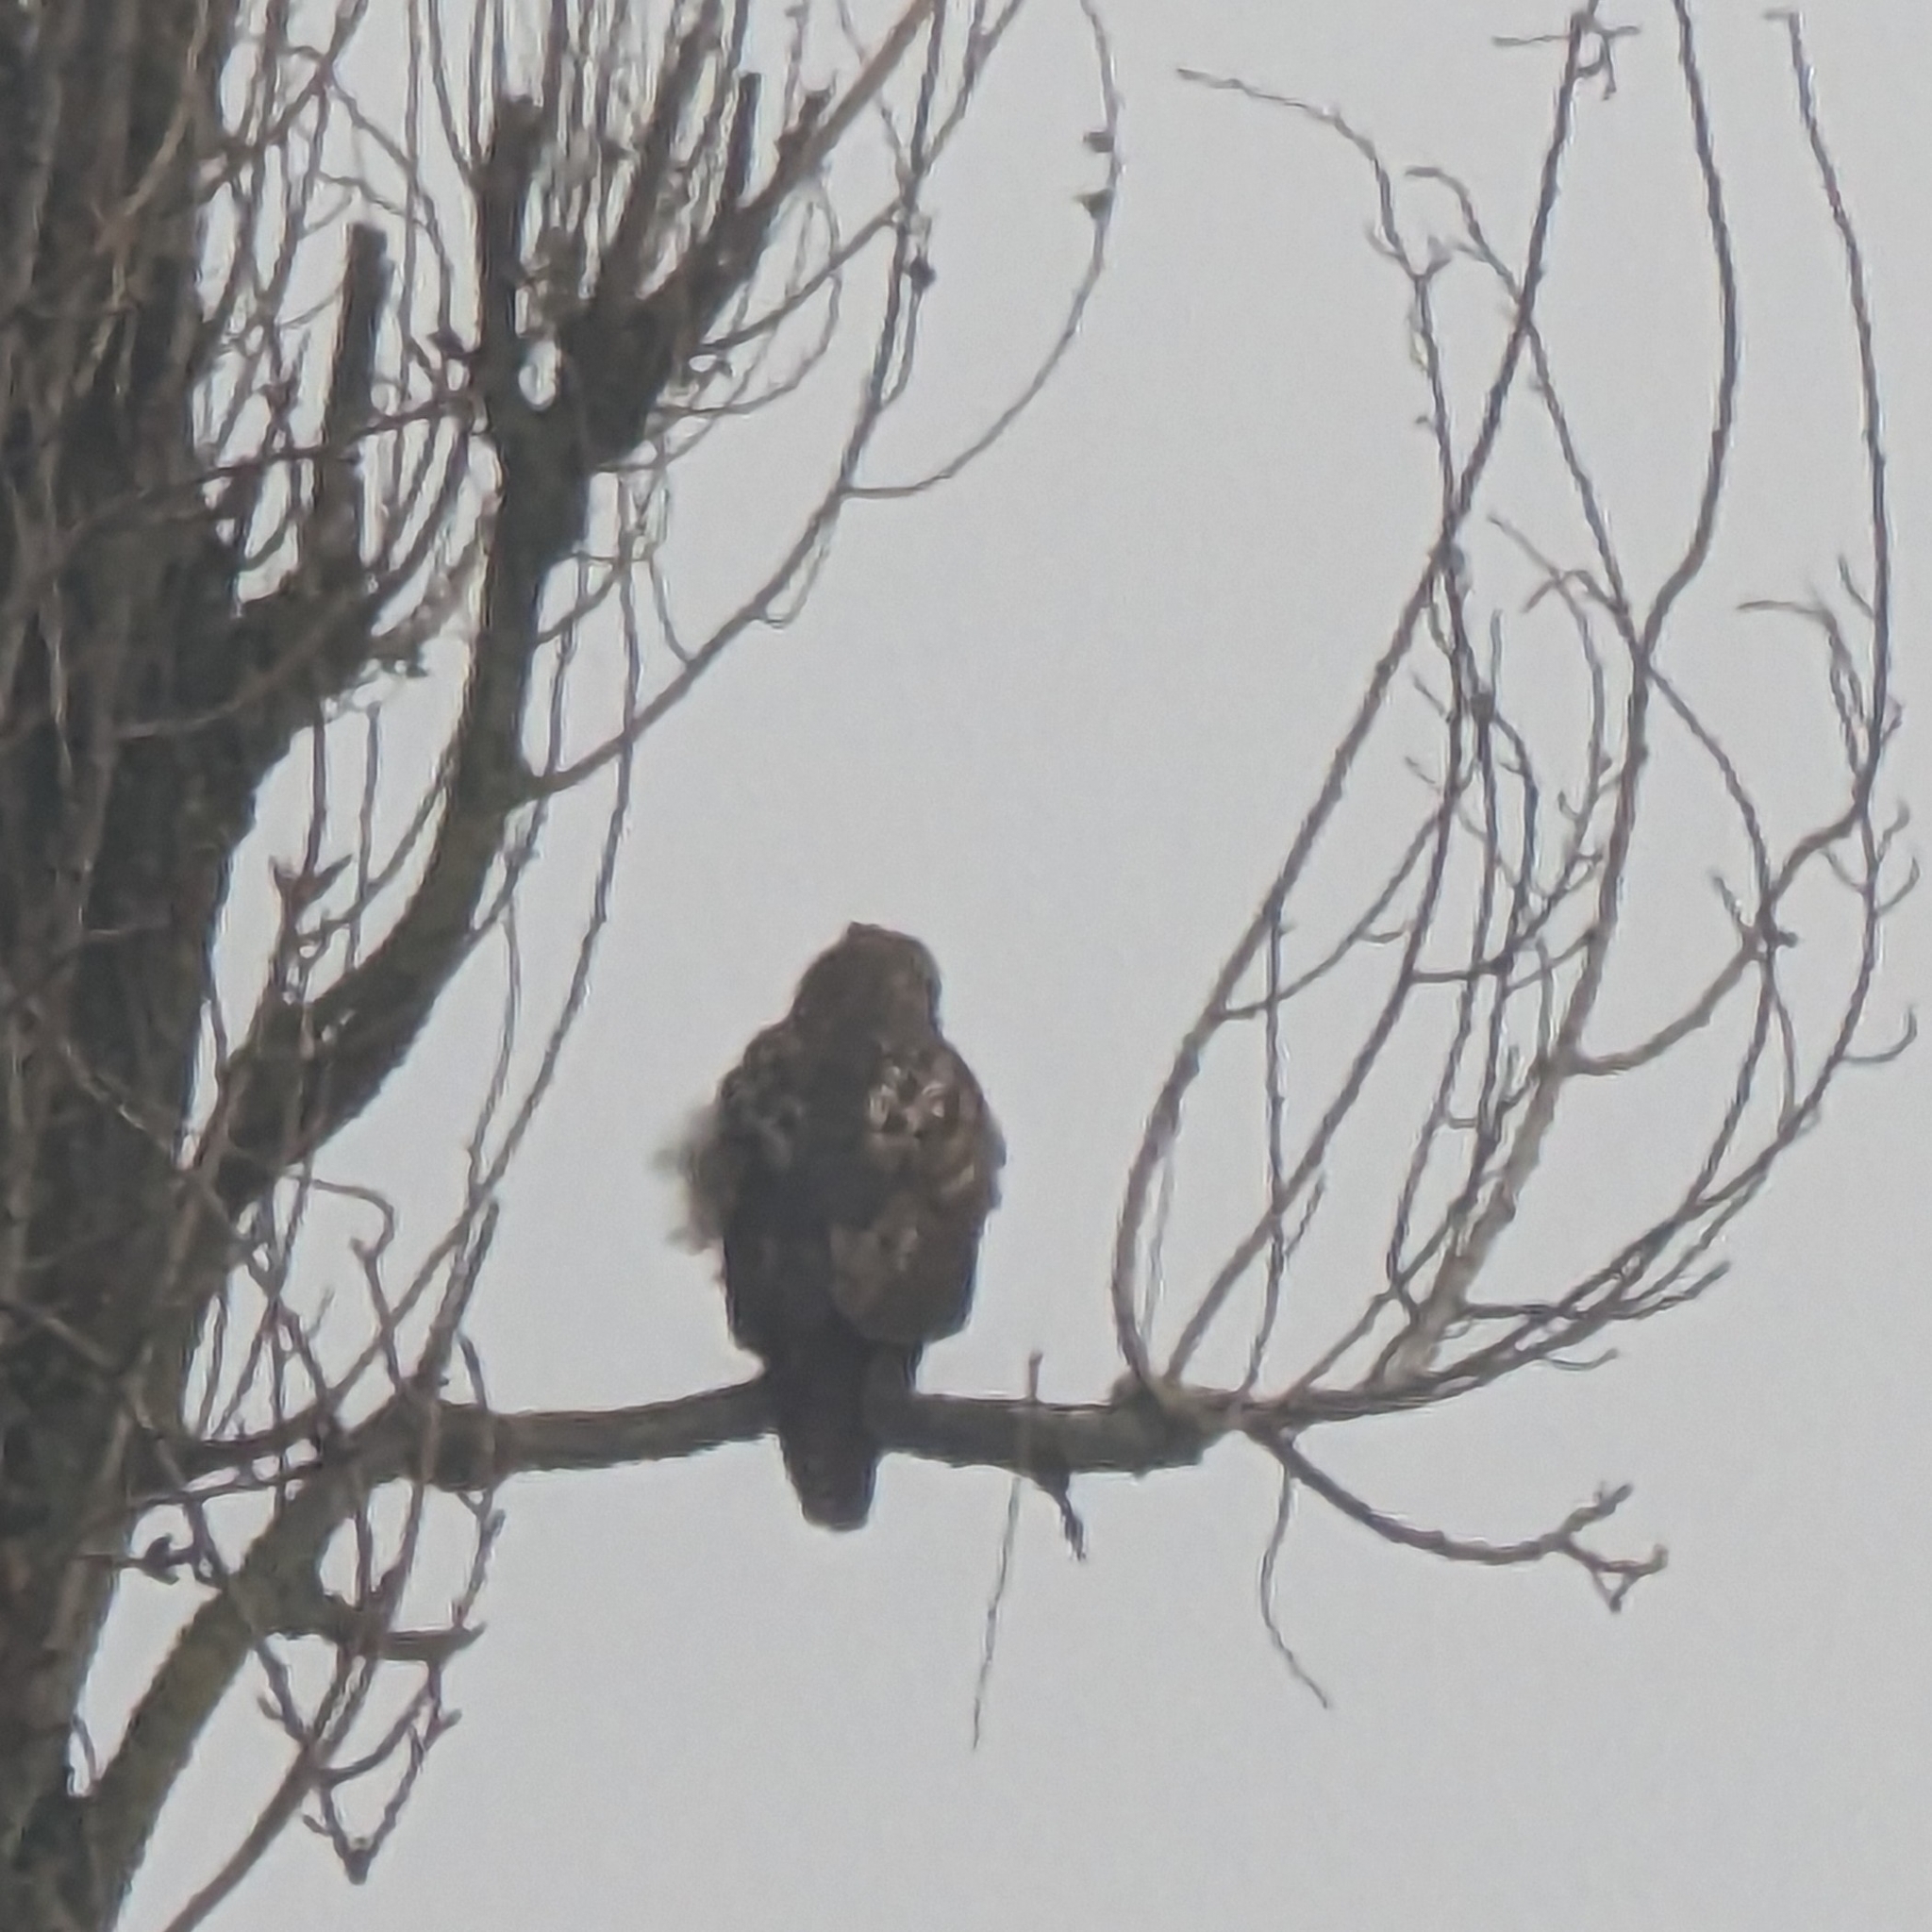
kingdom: Animalia
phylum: Chordata
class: Aves
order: Accipitriformes
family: Accipitridae
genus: Buteo
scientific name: Buteo jamaicensis
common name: Red-tailed hawk
